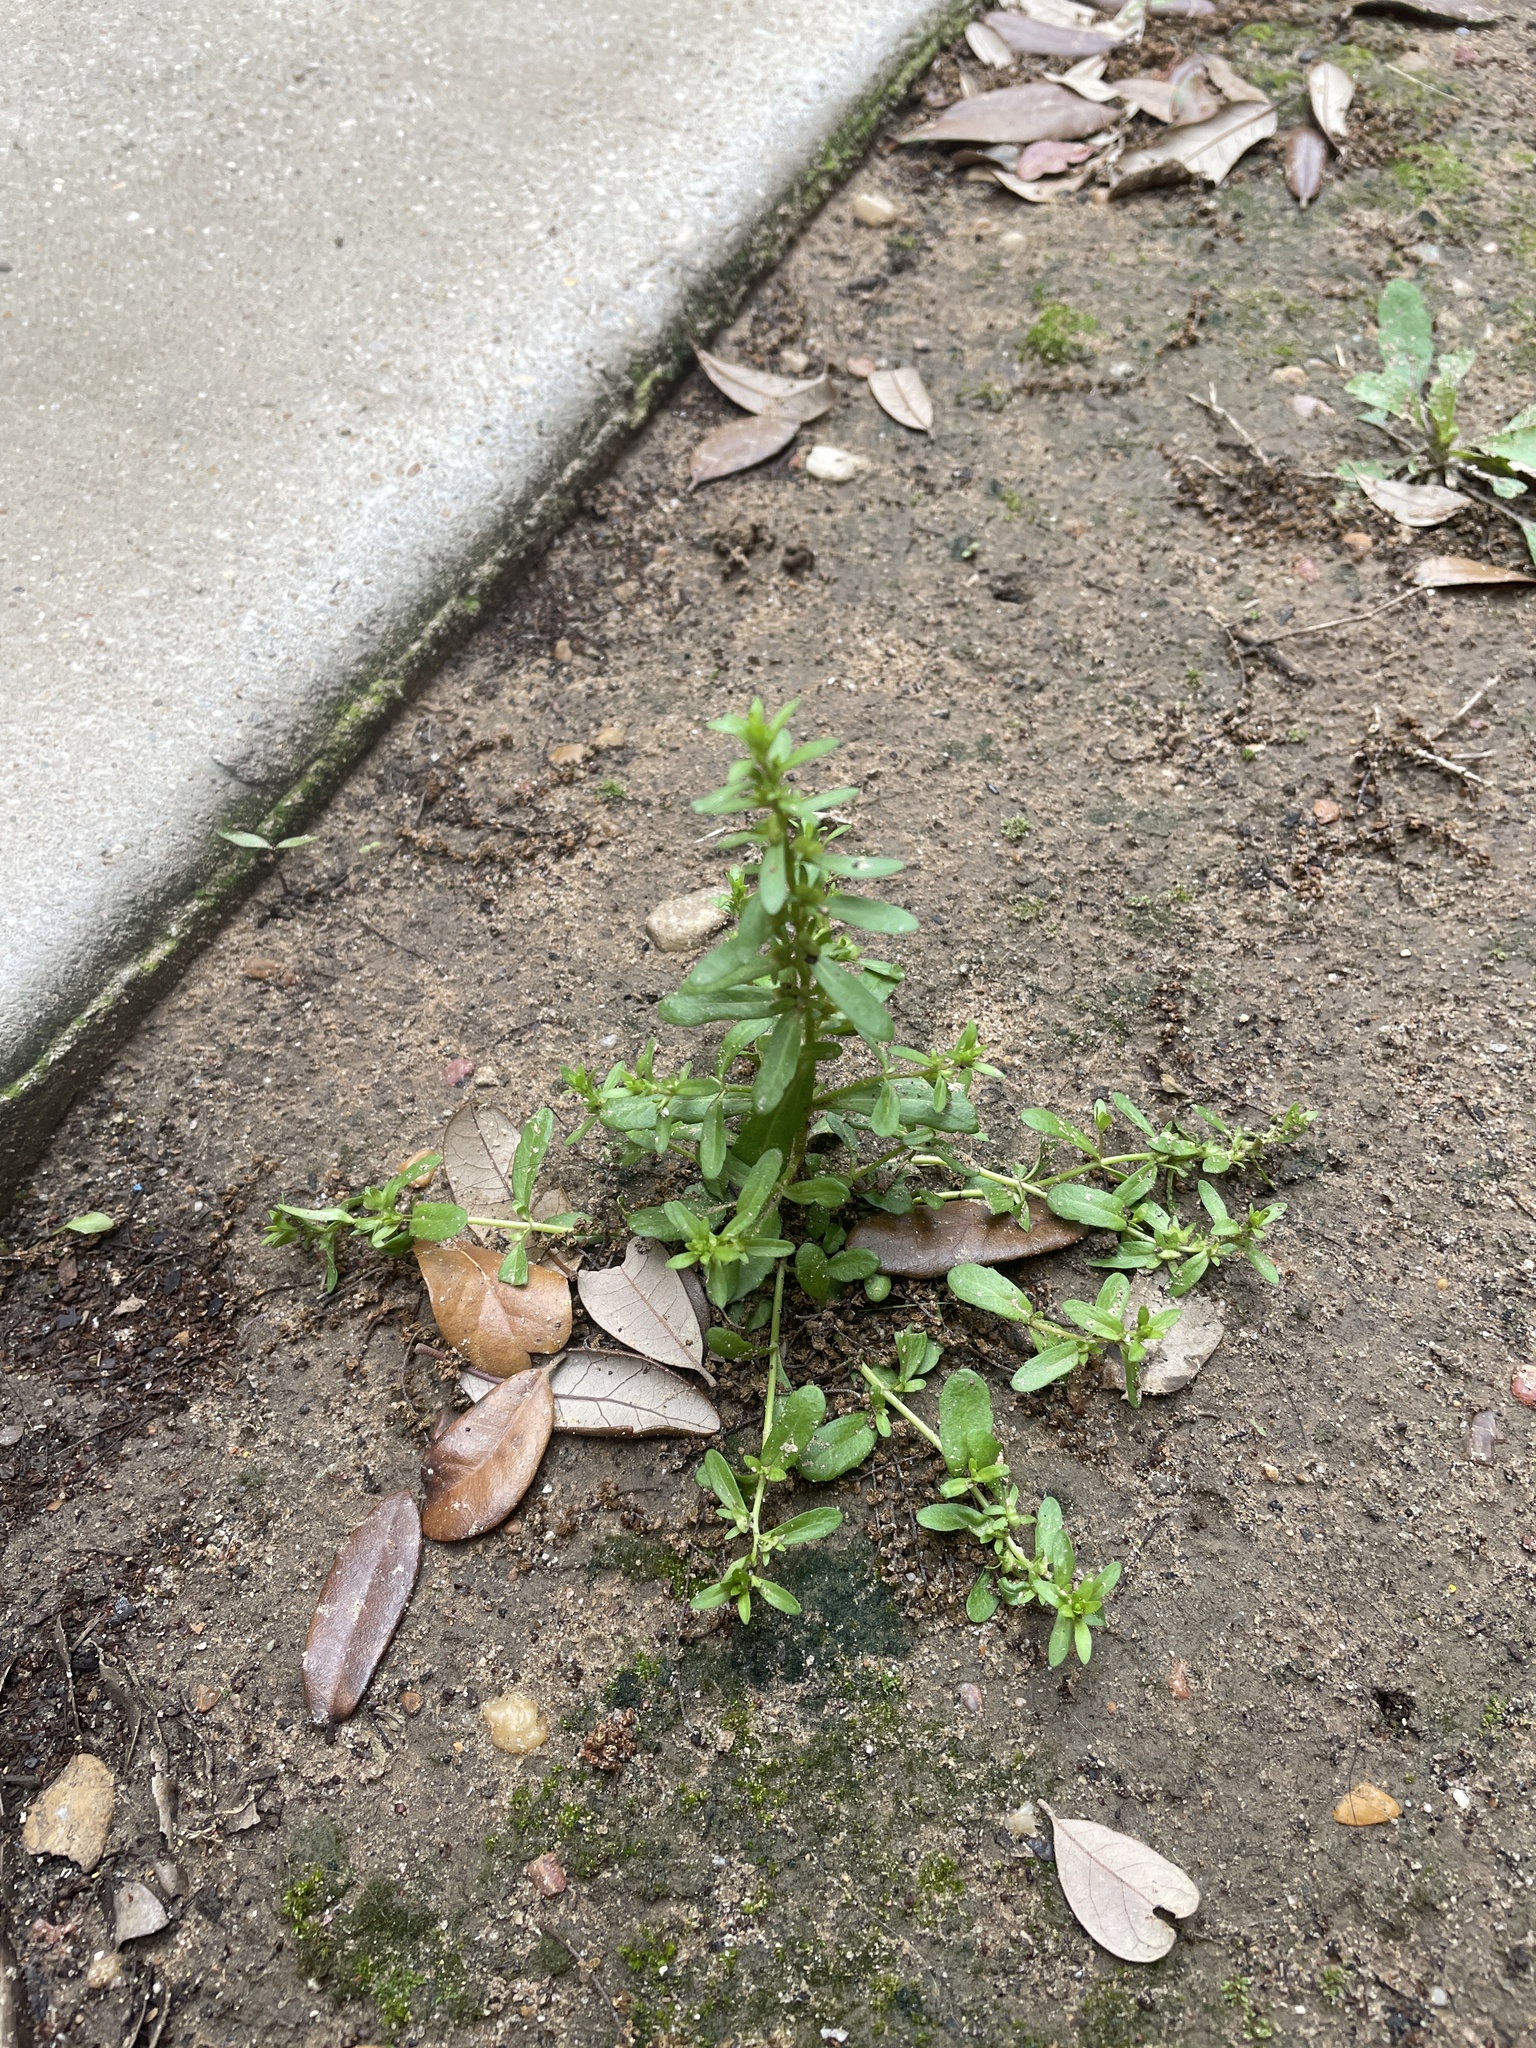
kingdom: Plantae
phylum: Tracheophyta
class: Magnoliopsida
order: Lamiales
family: Plantaginaceae
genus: Veronica
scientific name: Veronica peregrina
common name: Neckweed
